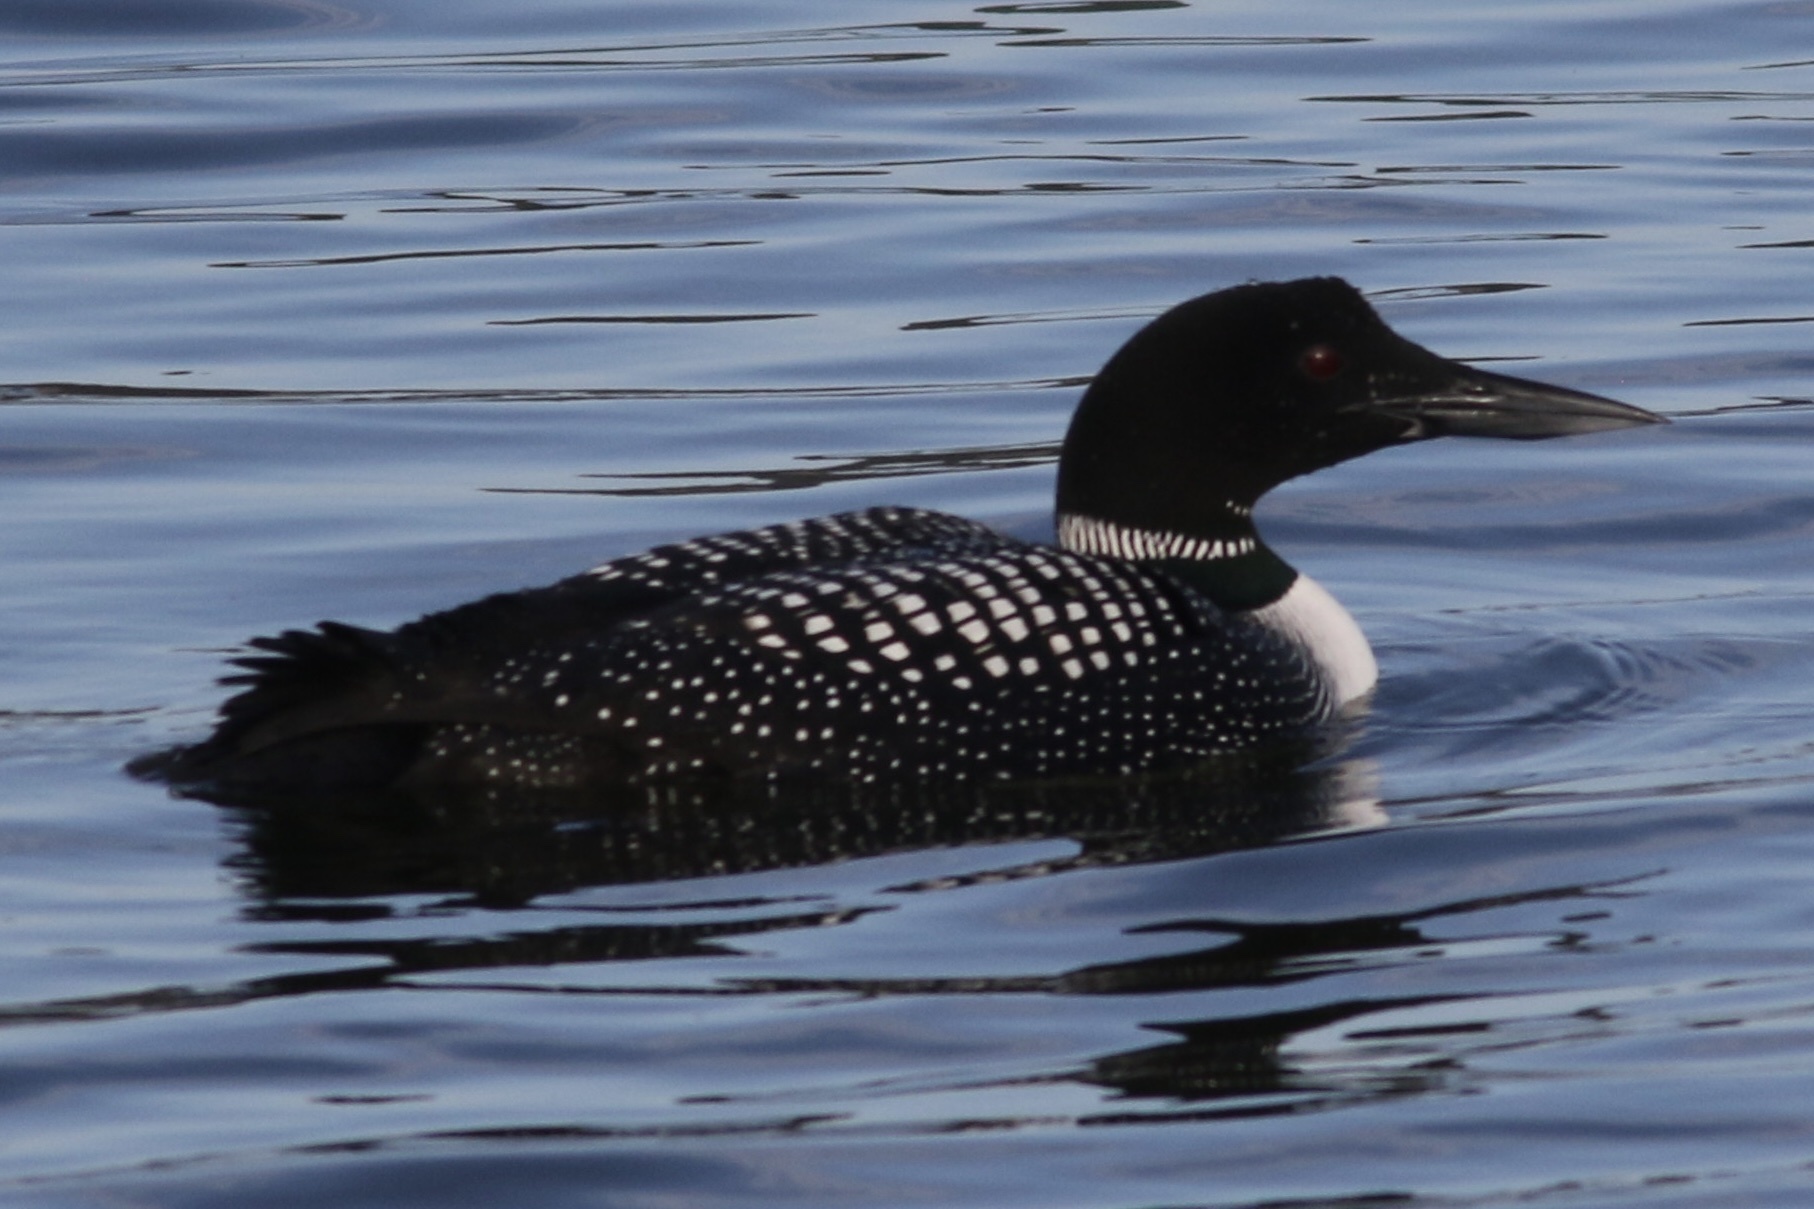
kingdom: Animalia
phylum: Chordata
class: Aves
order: Gaviiformes
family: Gaviidae
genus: Gavia
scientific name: Gavia immer
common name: Common loon
